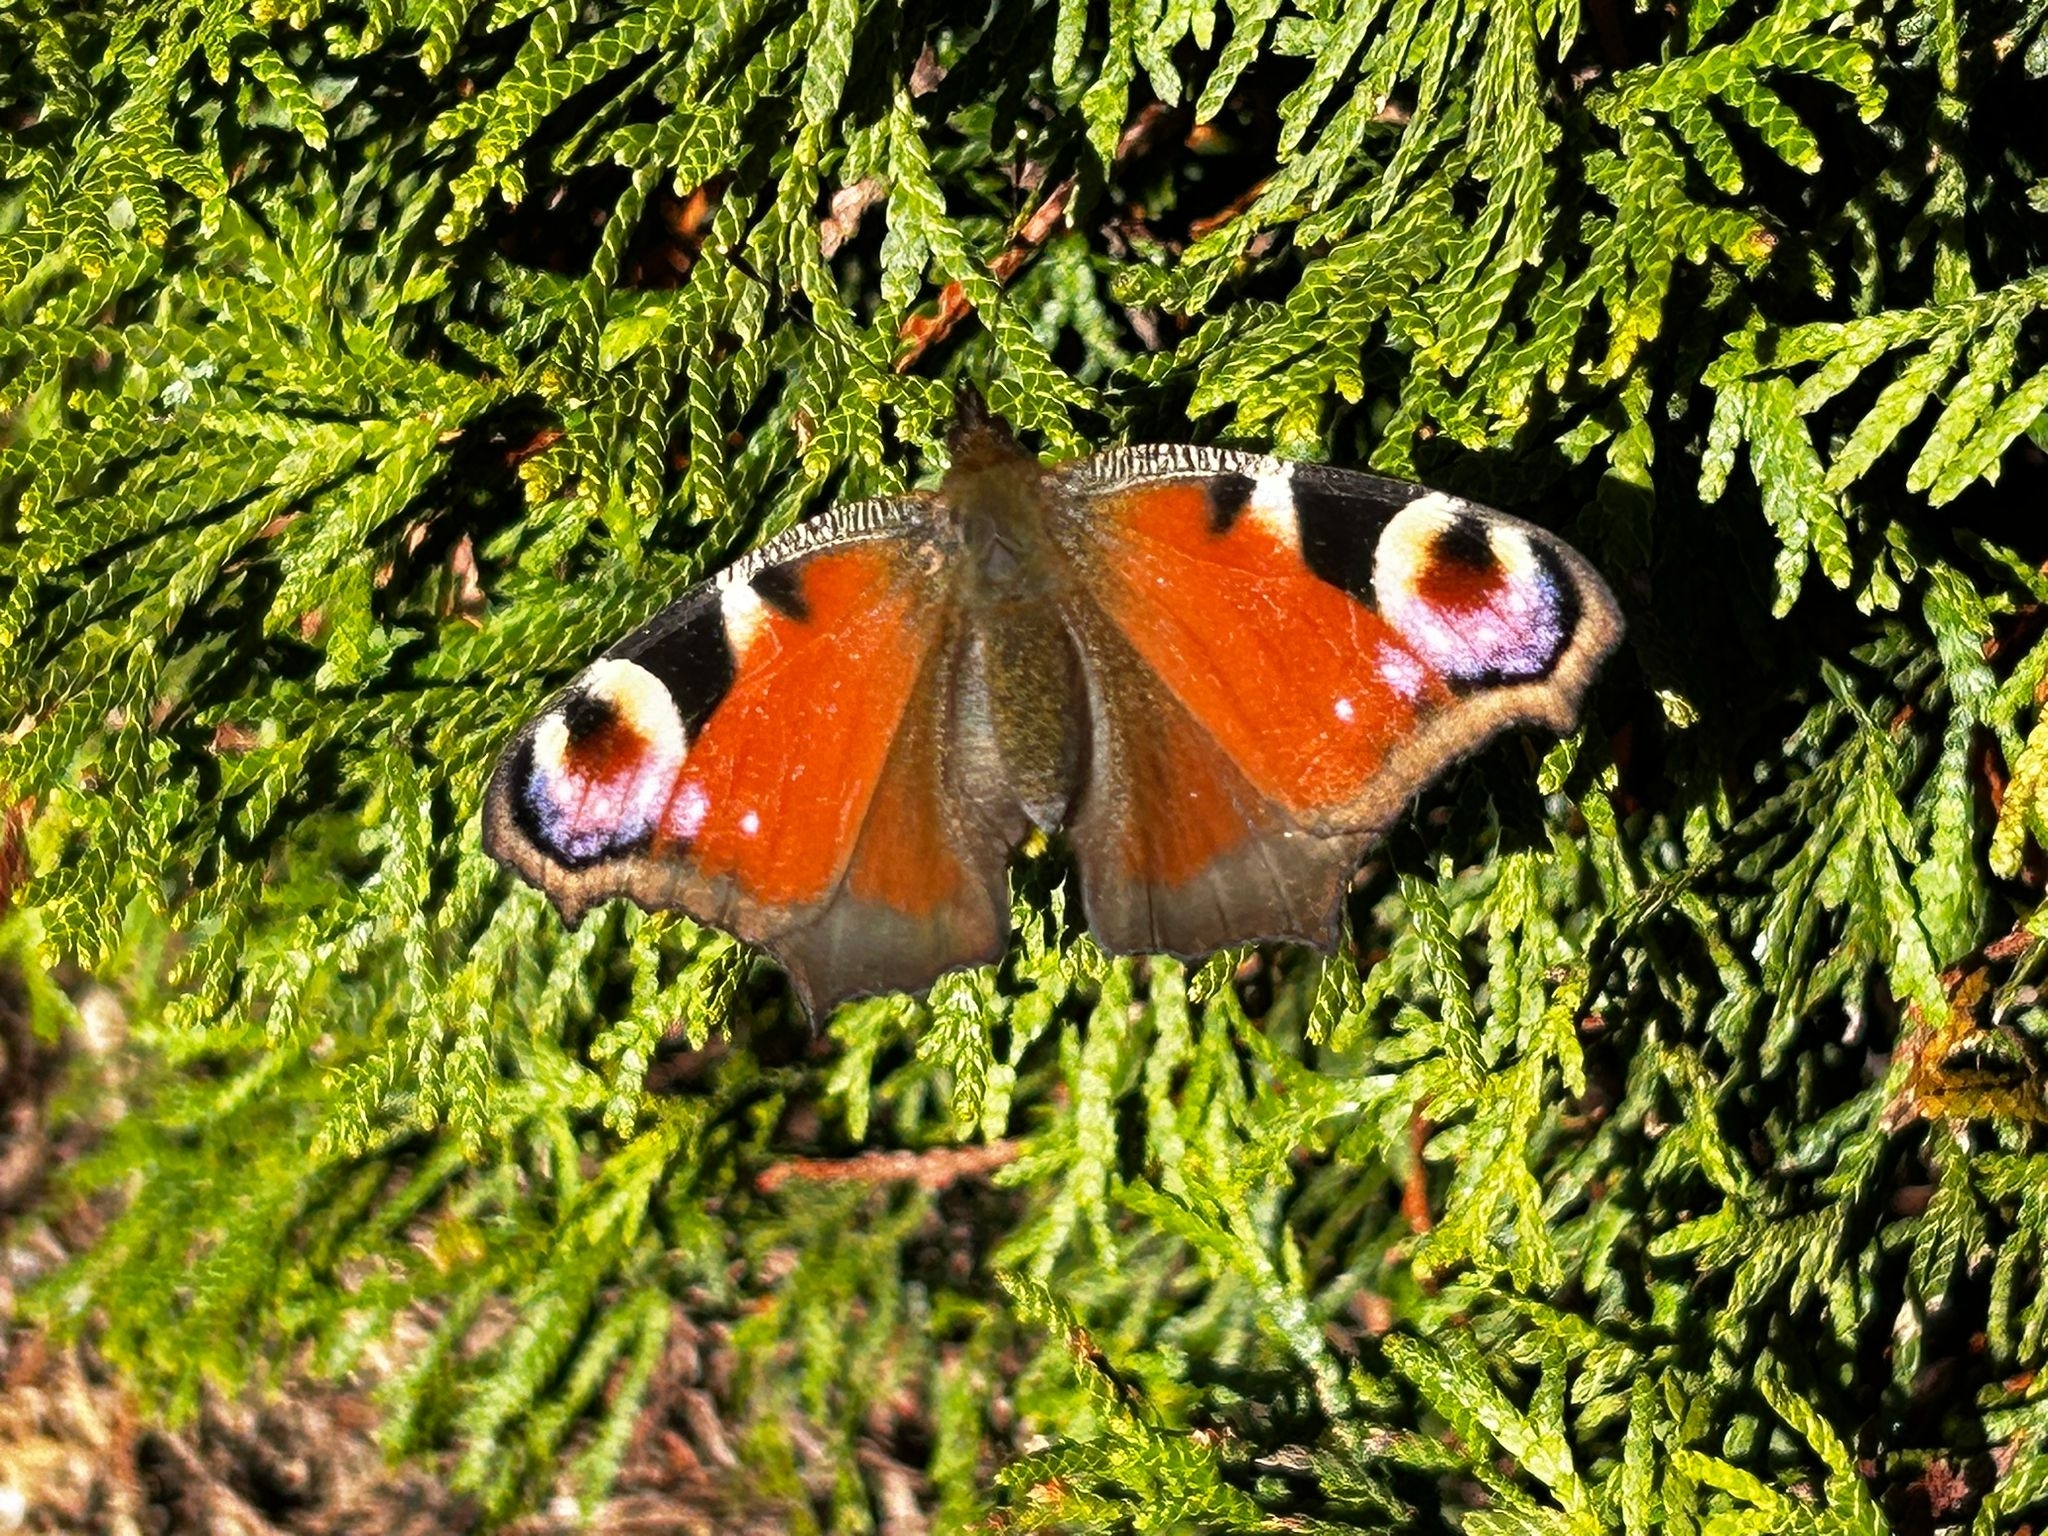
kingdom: Animalia
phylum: Arthropoda
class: Insecta
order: Lepidoptera
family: Nymphalidae
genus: Aglais
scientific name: Aglais io
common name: Peacock
